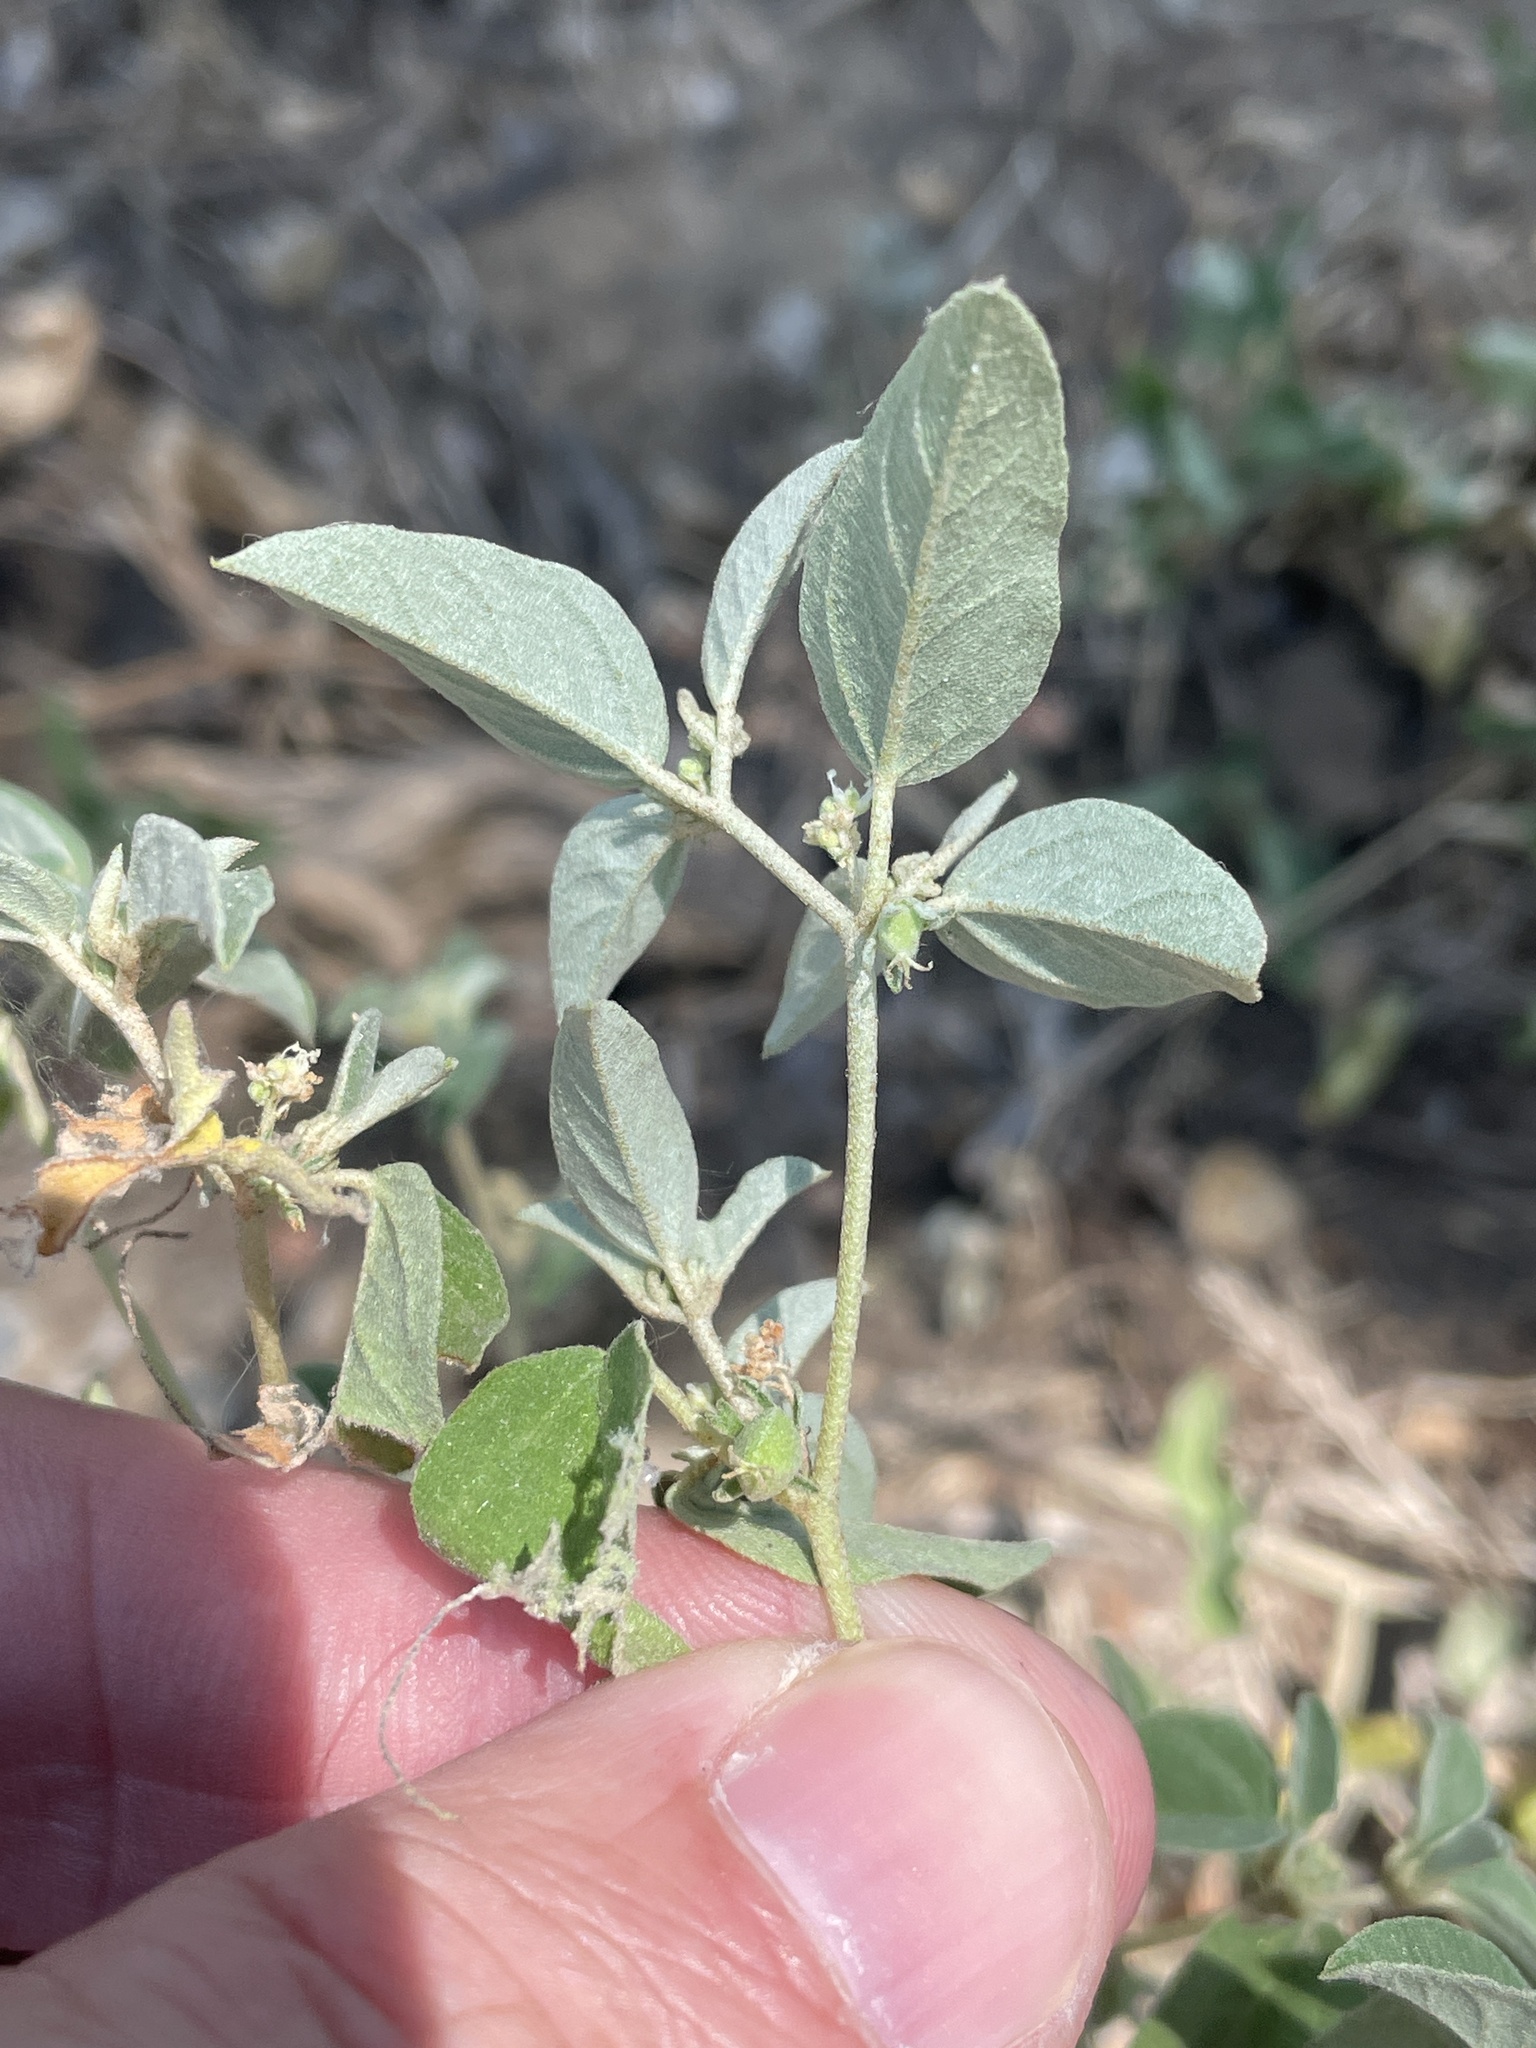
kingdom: Plantae
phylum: Tracheophyta
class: Magnoliopsida
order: Malpighiales
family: Euphorbiaceae
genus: Croton
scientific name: Croton monanthogynus
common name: One-seed croton
